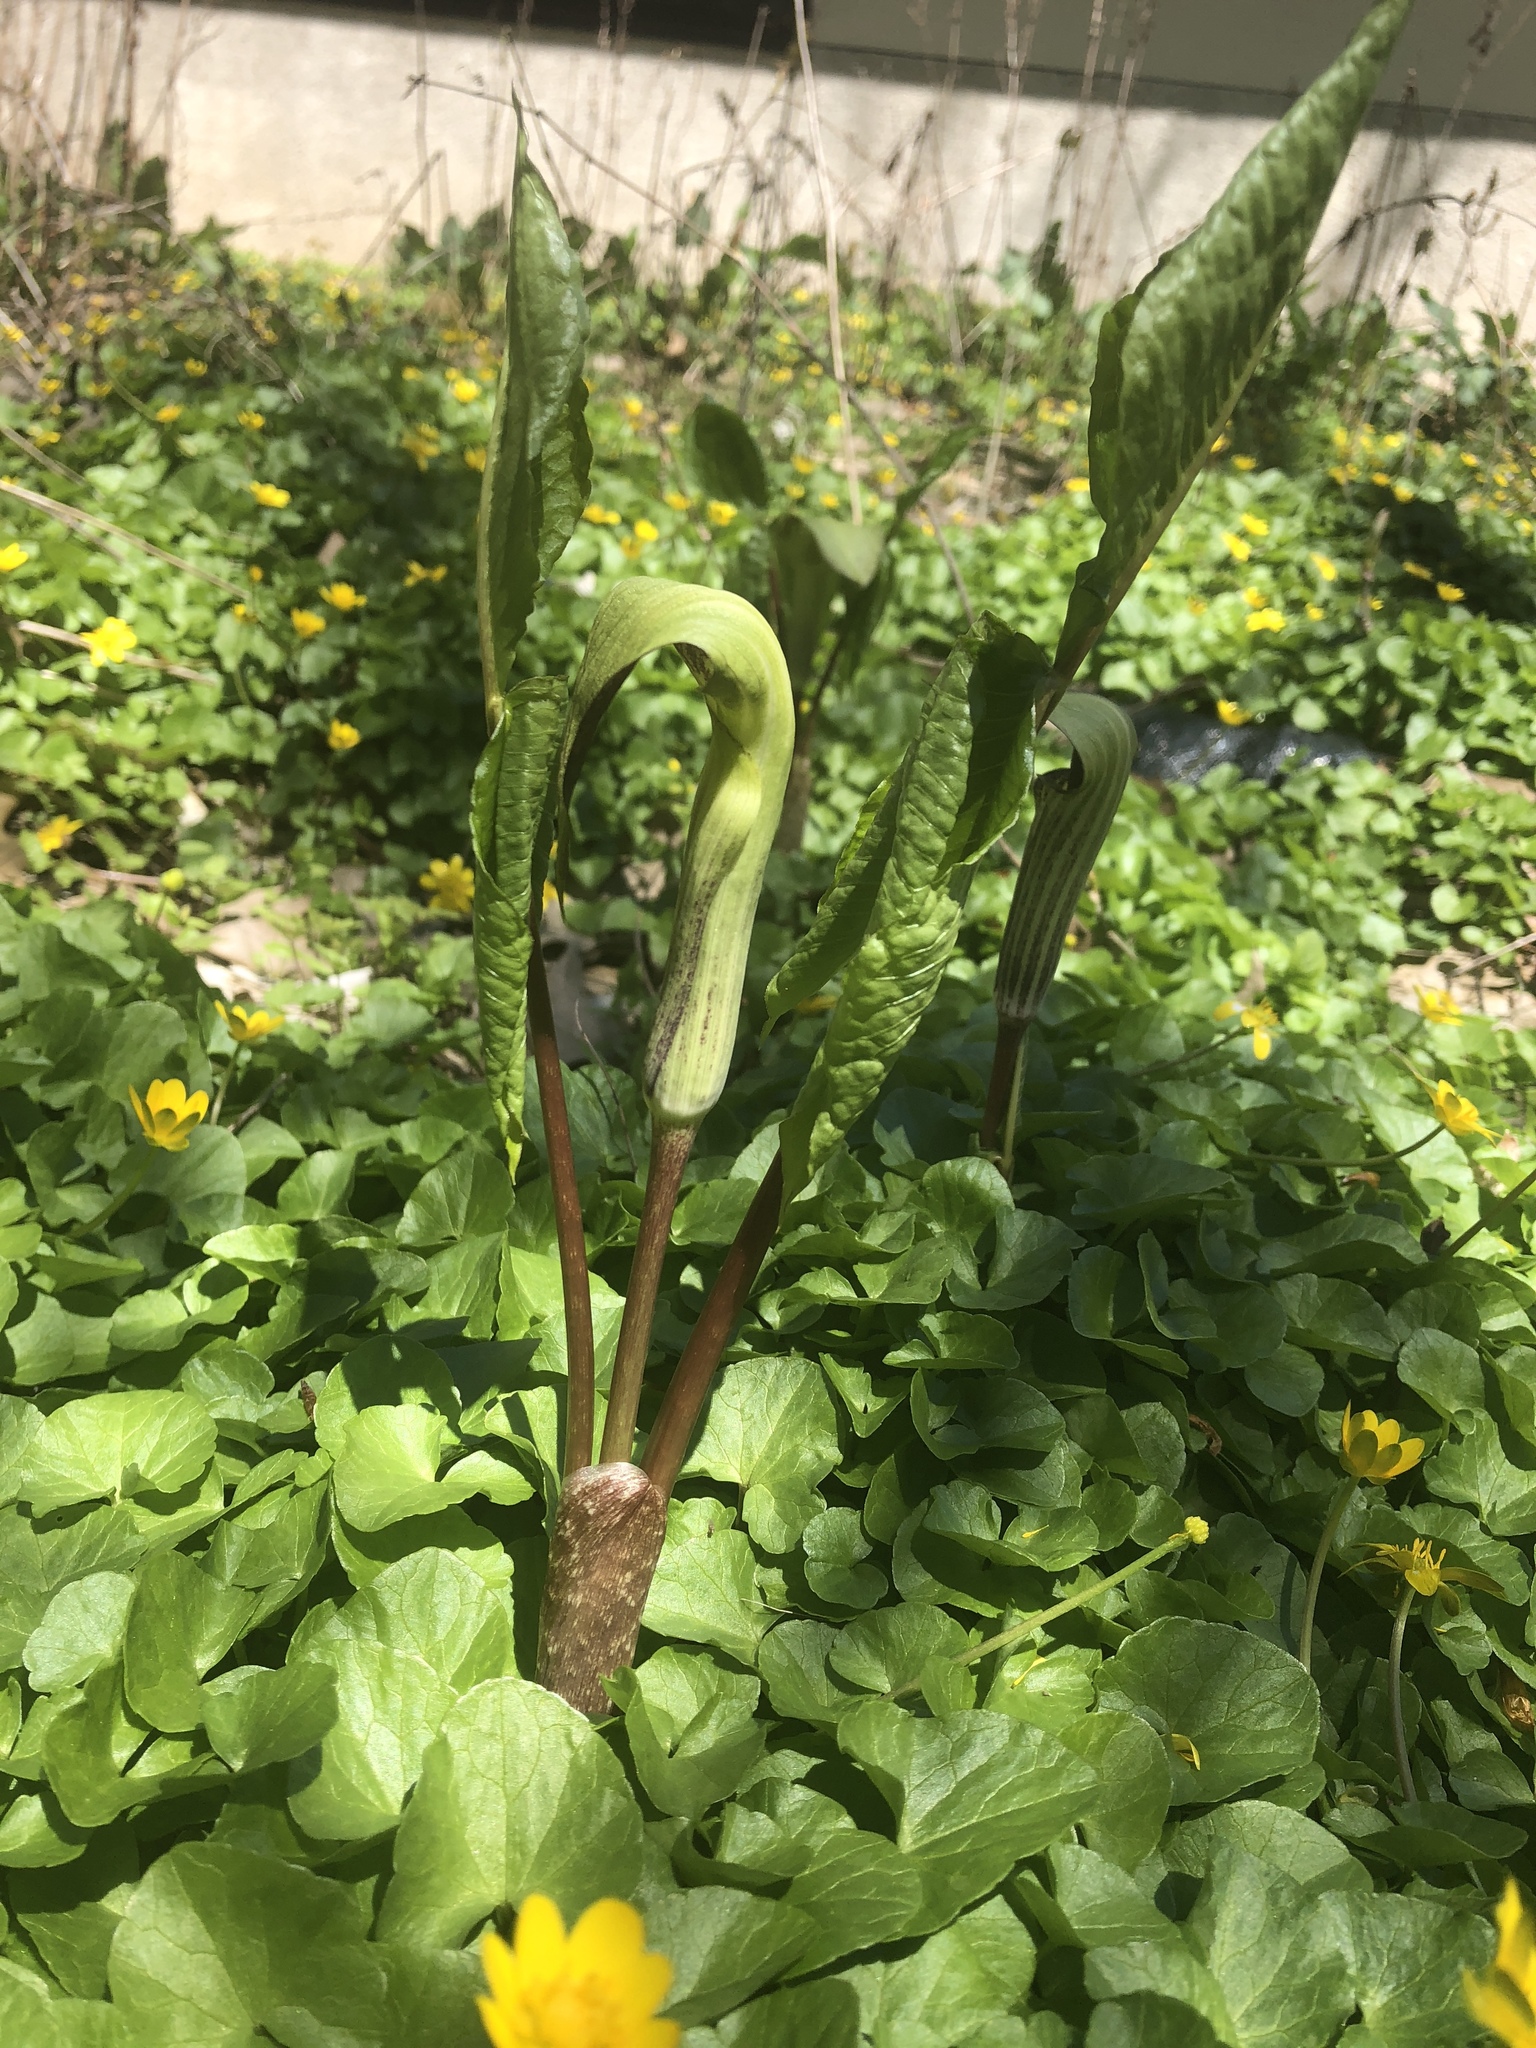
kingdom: Plantae
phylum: Tracheophyta
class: Liliopsida
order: Alismatales
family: Araceae
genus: Arisaema
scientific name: Arisaema triphyllum
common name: Jack-in-the-pulpit
